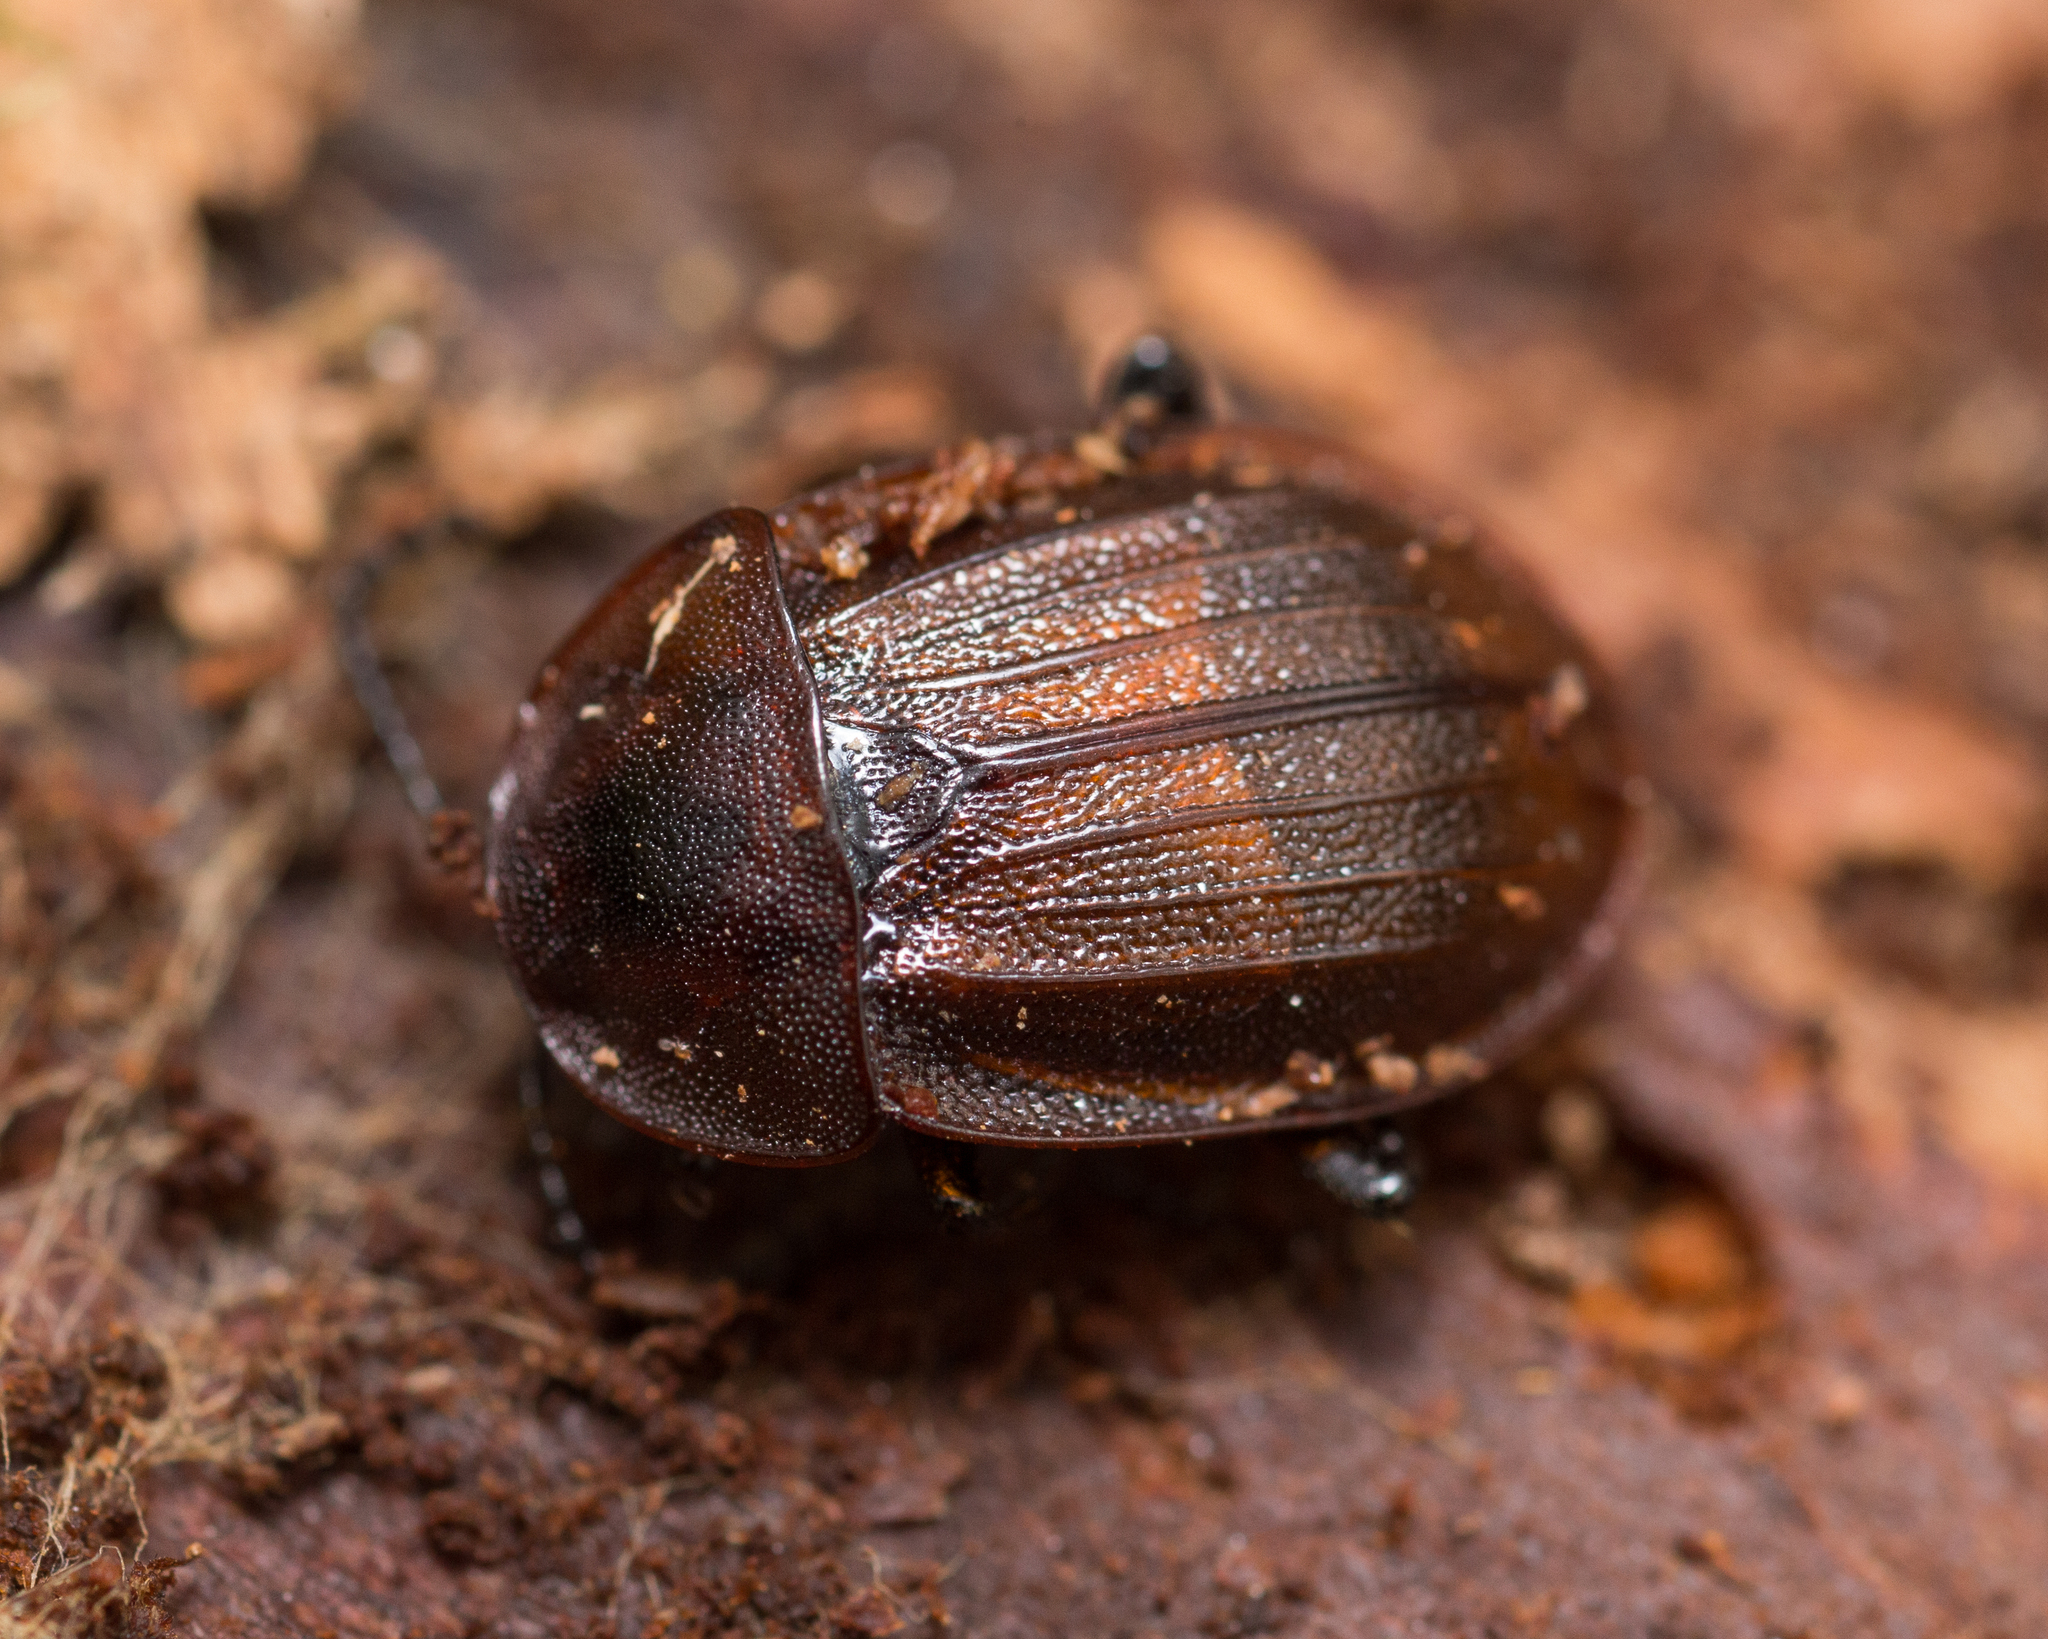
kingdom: Animalia
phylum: Arthropoda
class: Insecta
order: Coleoptera
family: Staphylinidae
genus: Silpha
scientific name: Silpha atrata
